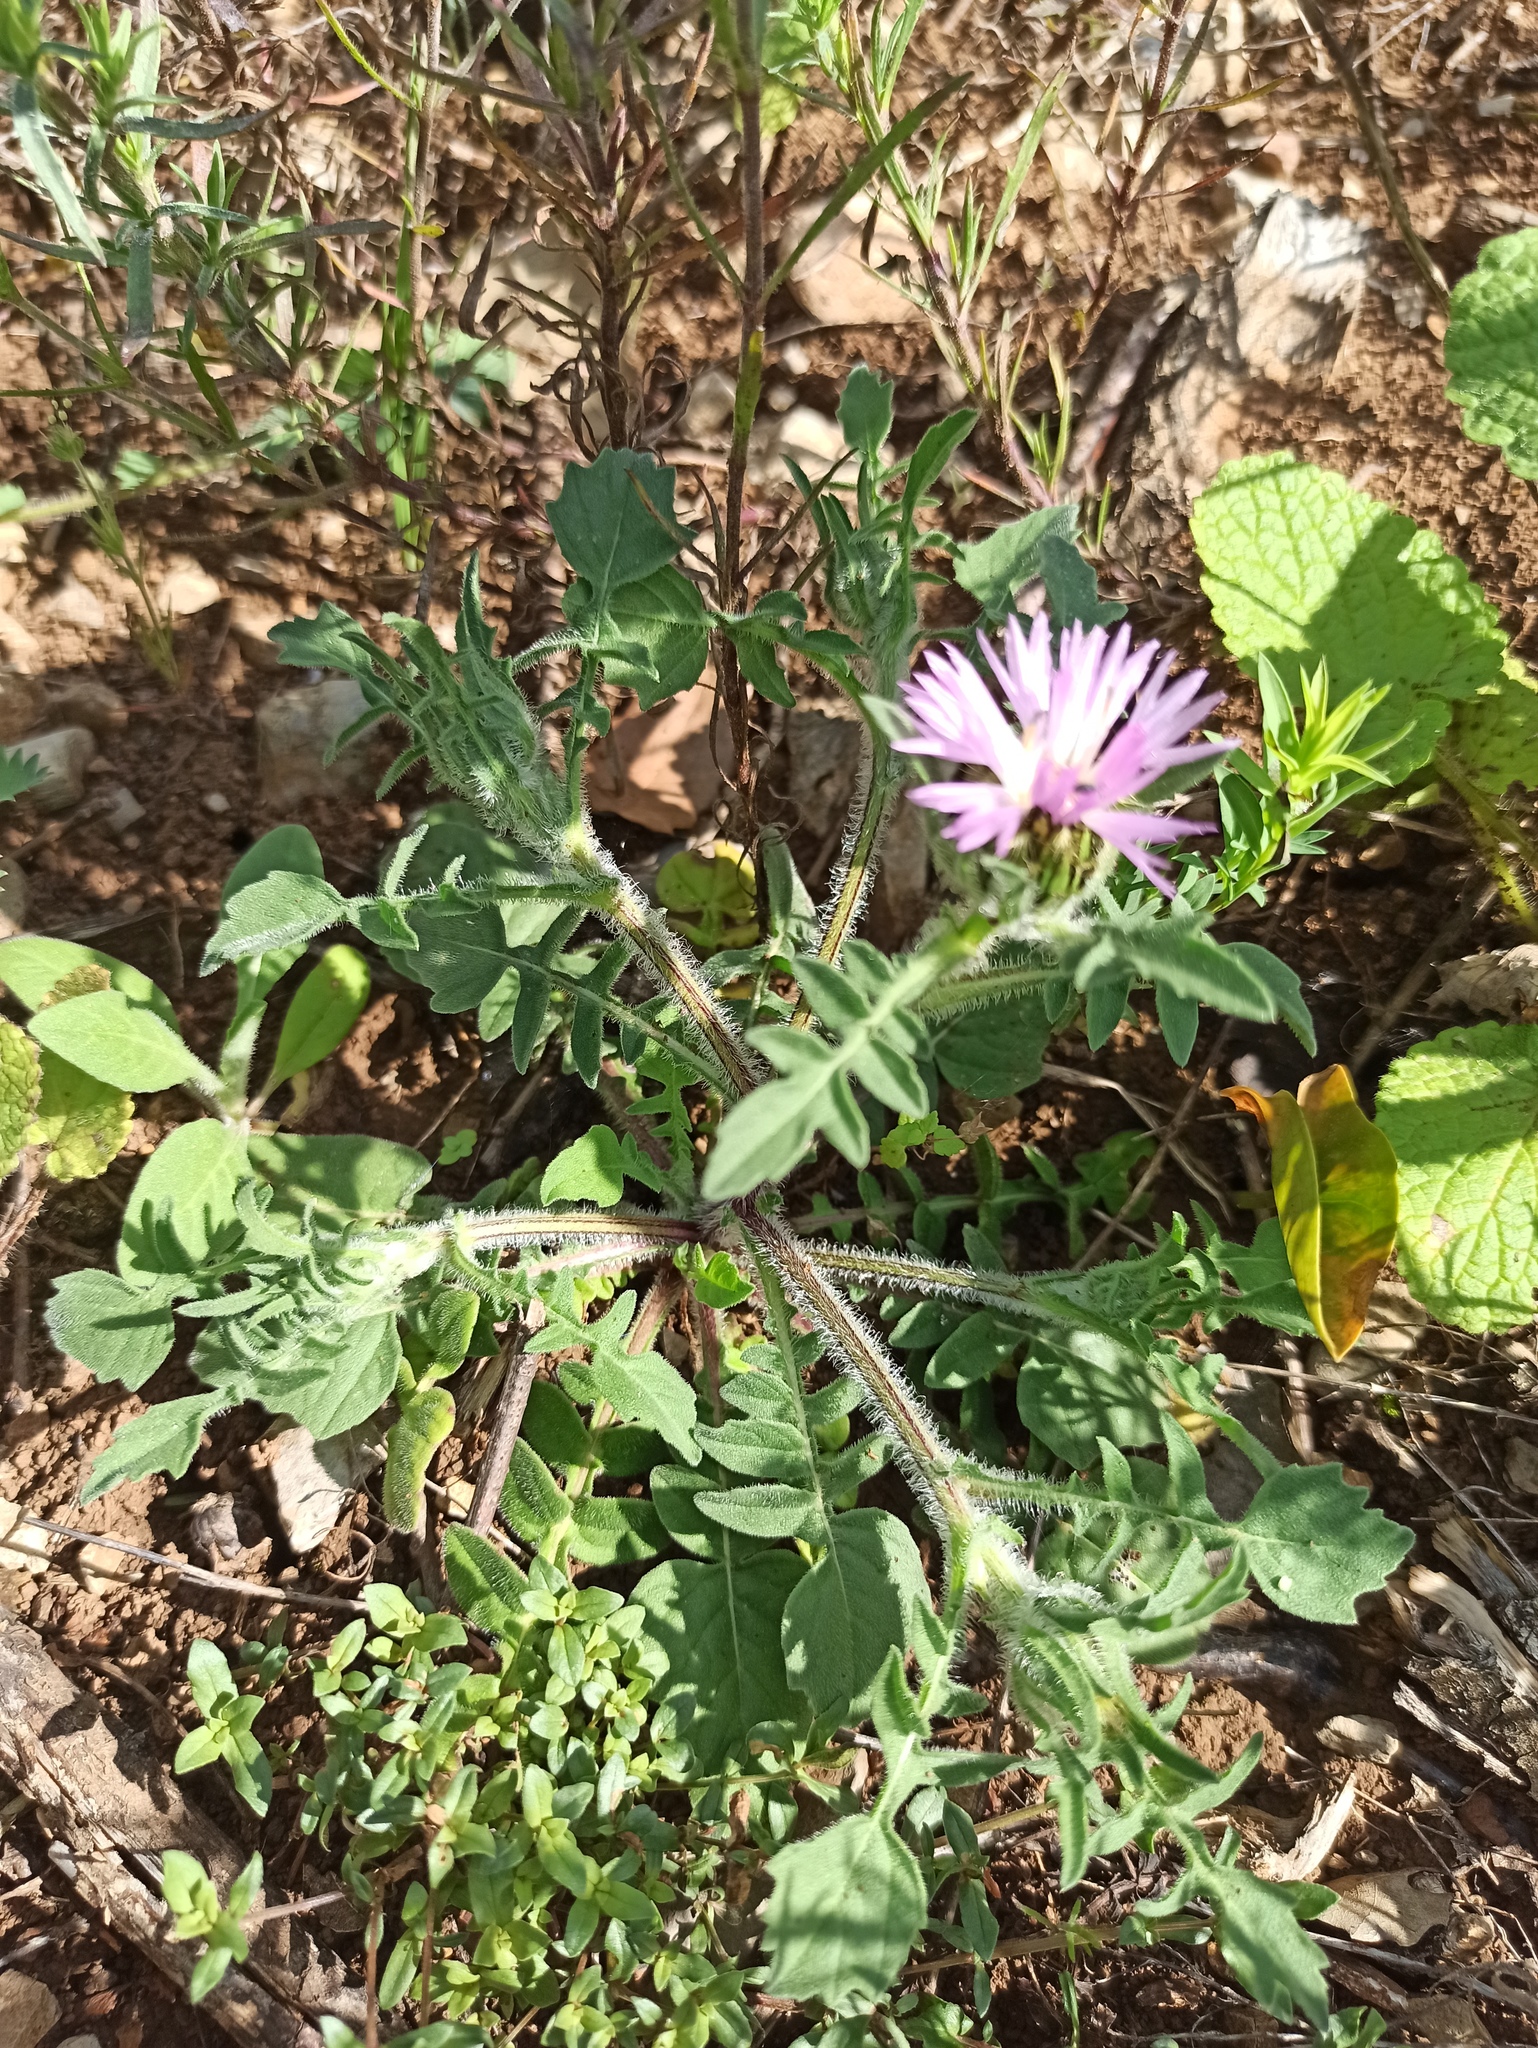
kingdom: Plantae
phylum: Tracheophyta
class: Magnoliopsida
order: Asterales
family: Asteraceae
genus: Centaurea
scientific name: Centaurea pullata
